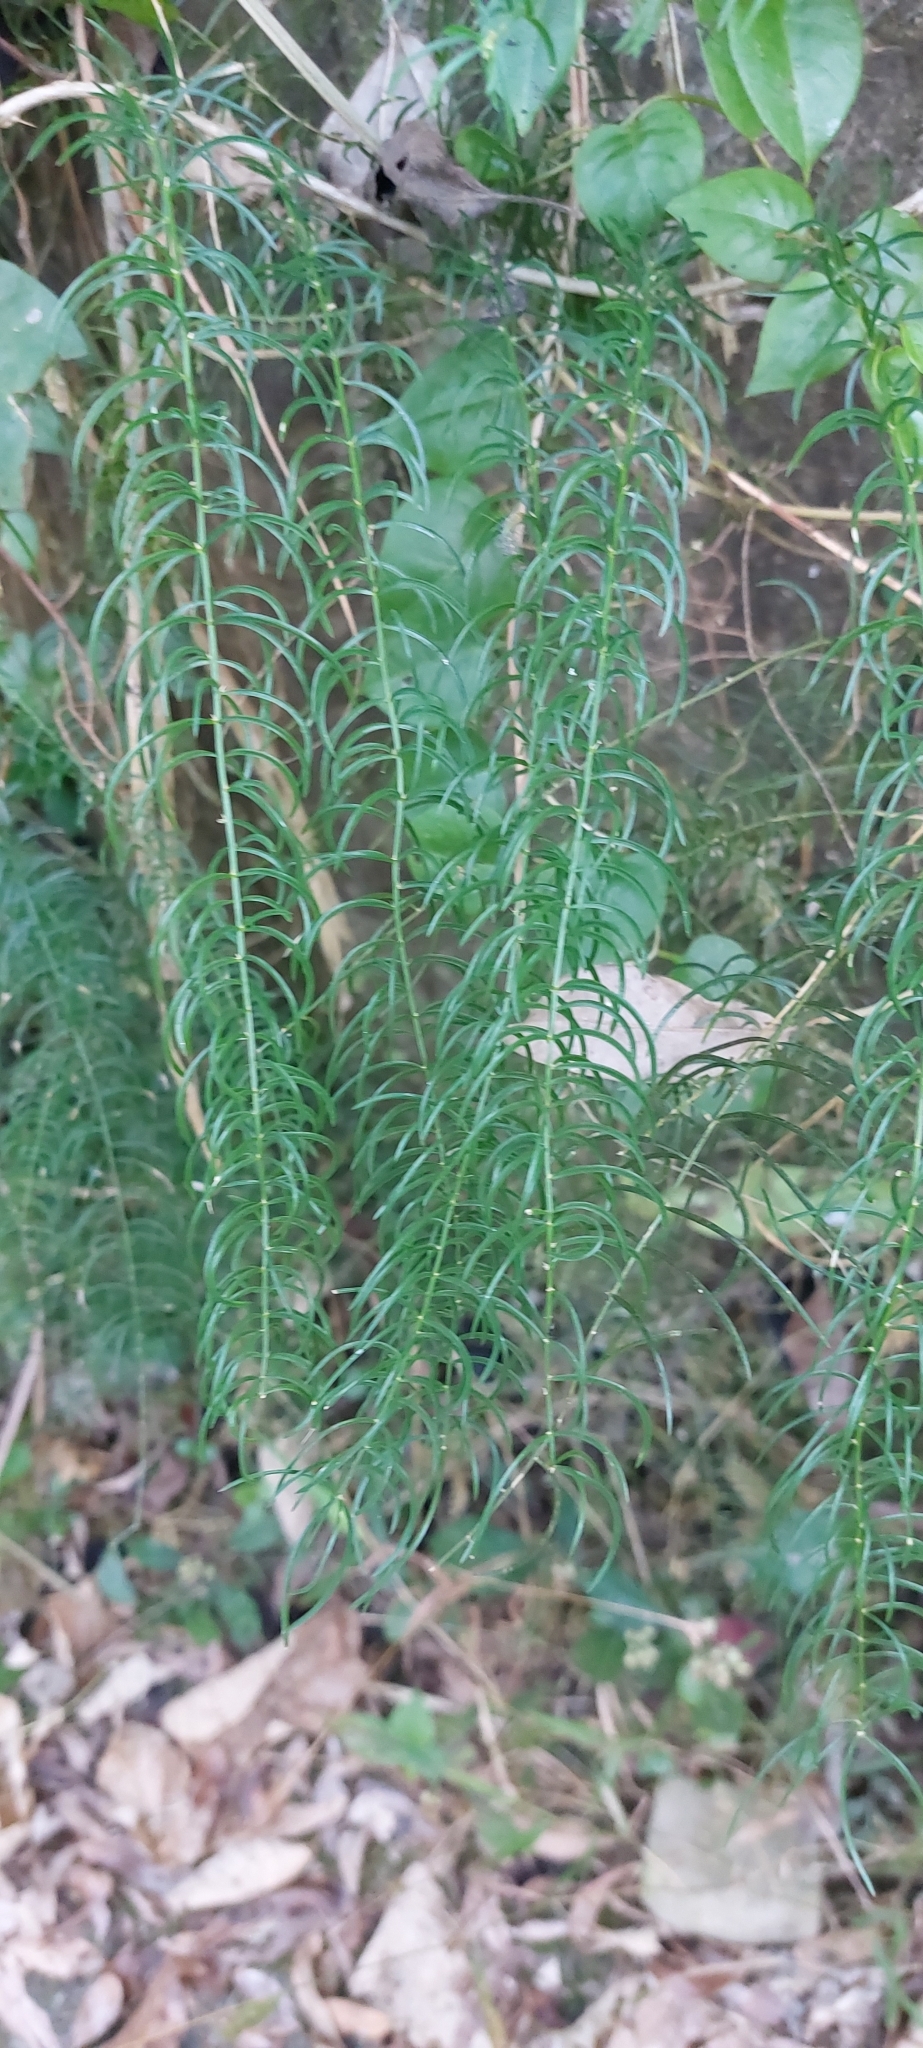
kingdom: Plantae
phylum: Tracheophyta
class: Liliopsida
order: Asparagales
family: Asparagaceae
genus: Asparagus
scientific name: Asparagus cochinchinensis
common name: Chinese asparagus
